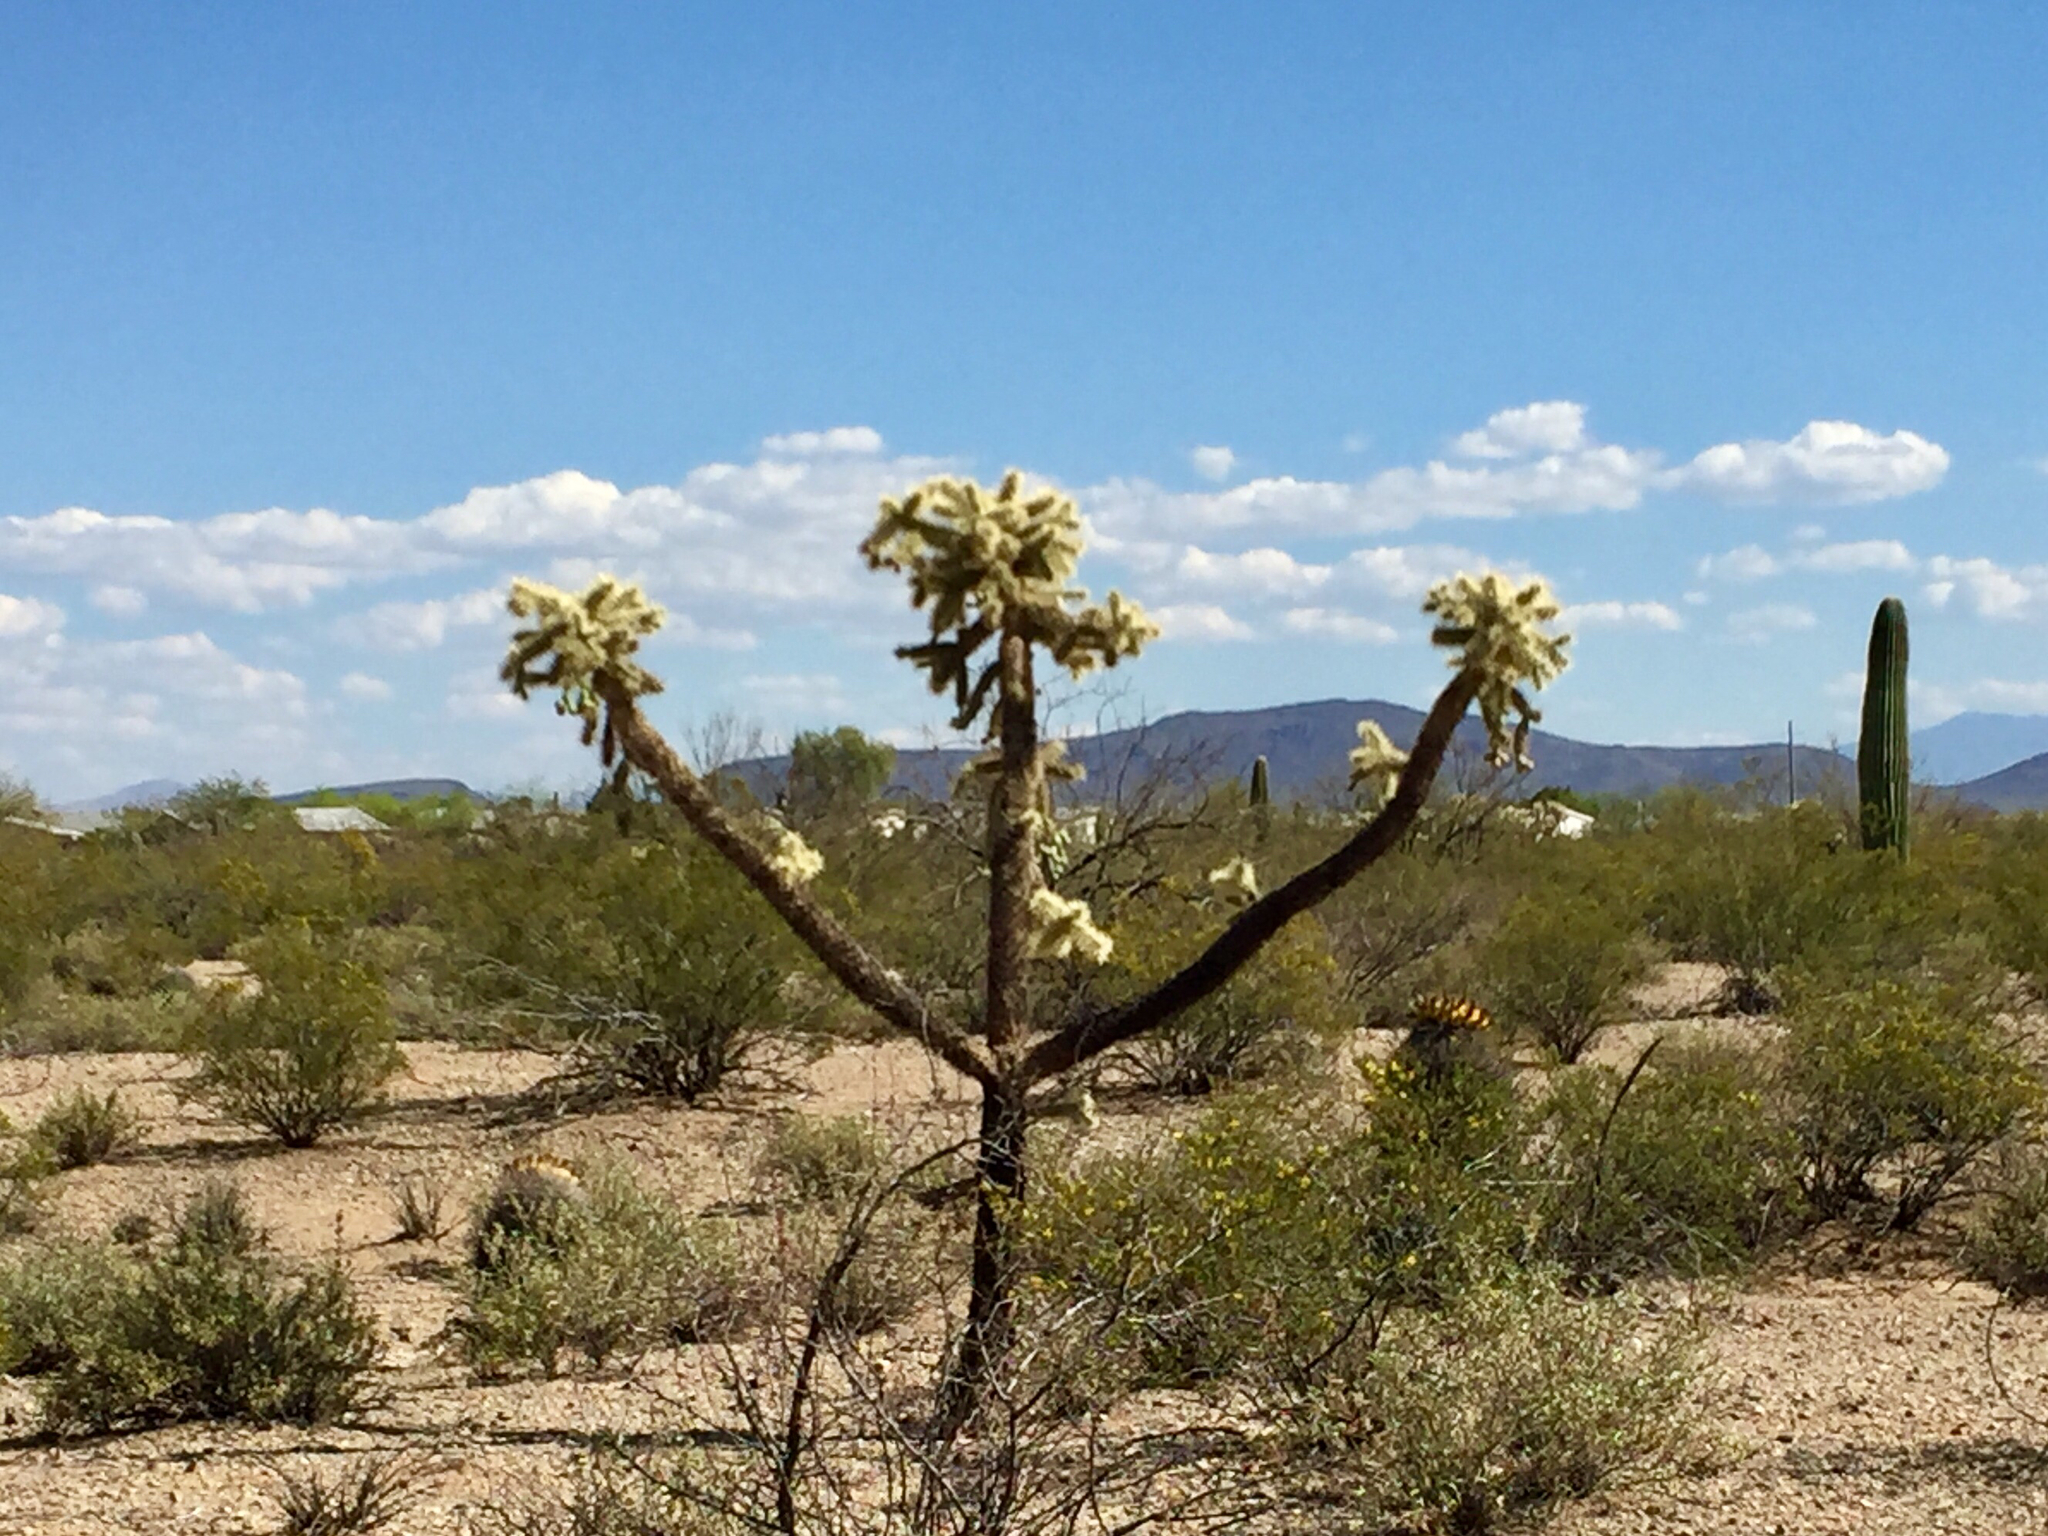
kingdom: Plantae
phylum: Tracheophyta
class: Magnoliopsida
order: Caryophyllales
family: Cactaceae
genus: Cylindropuntia
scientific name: Cylindropuntia fulgida
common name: Jumping cholla
